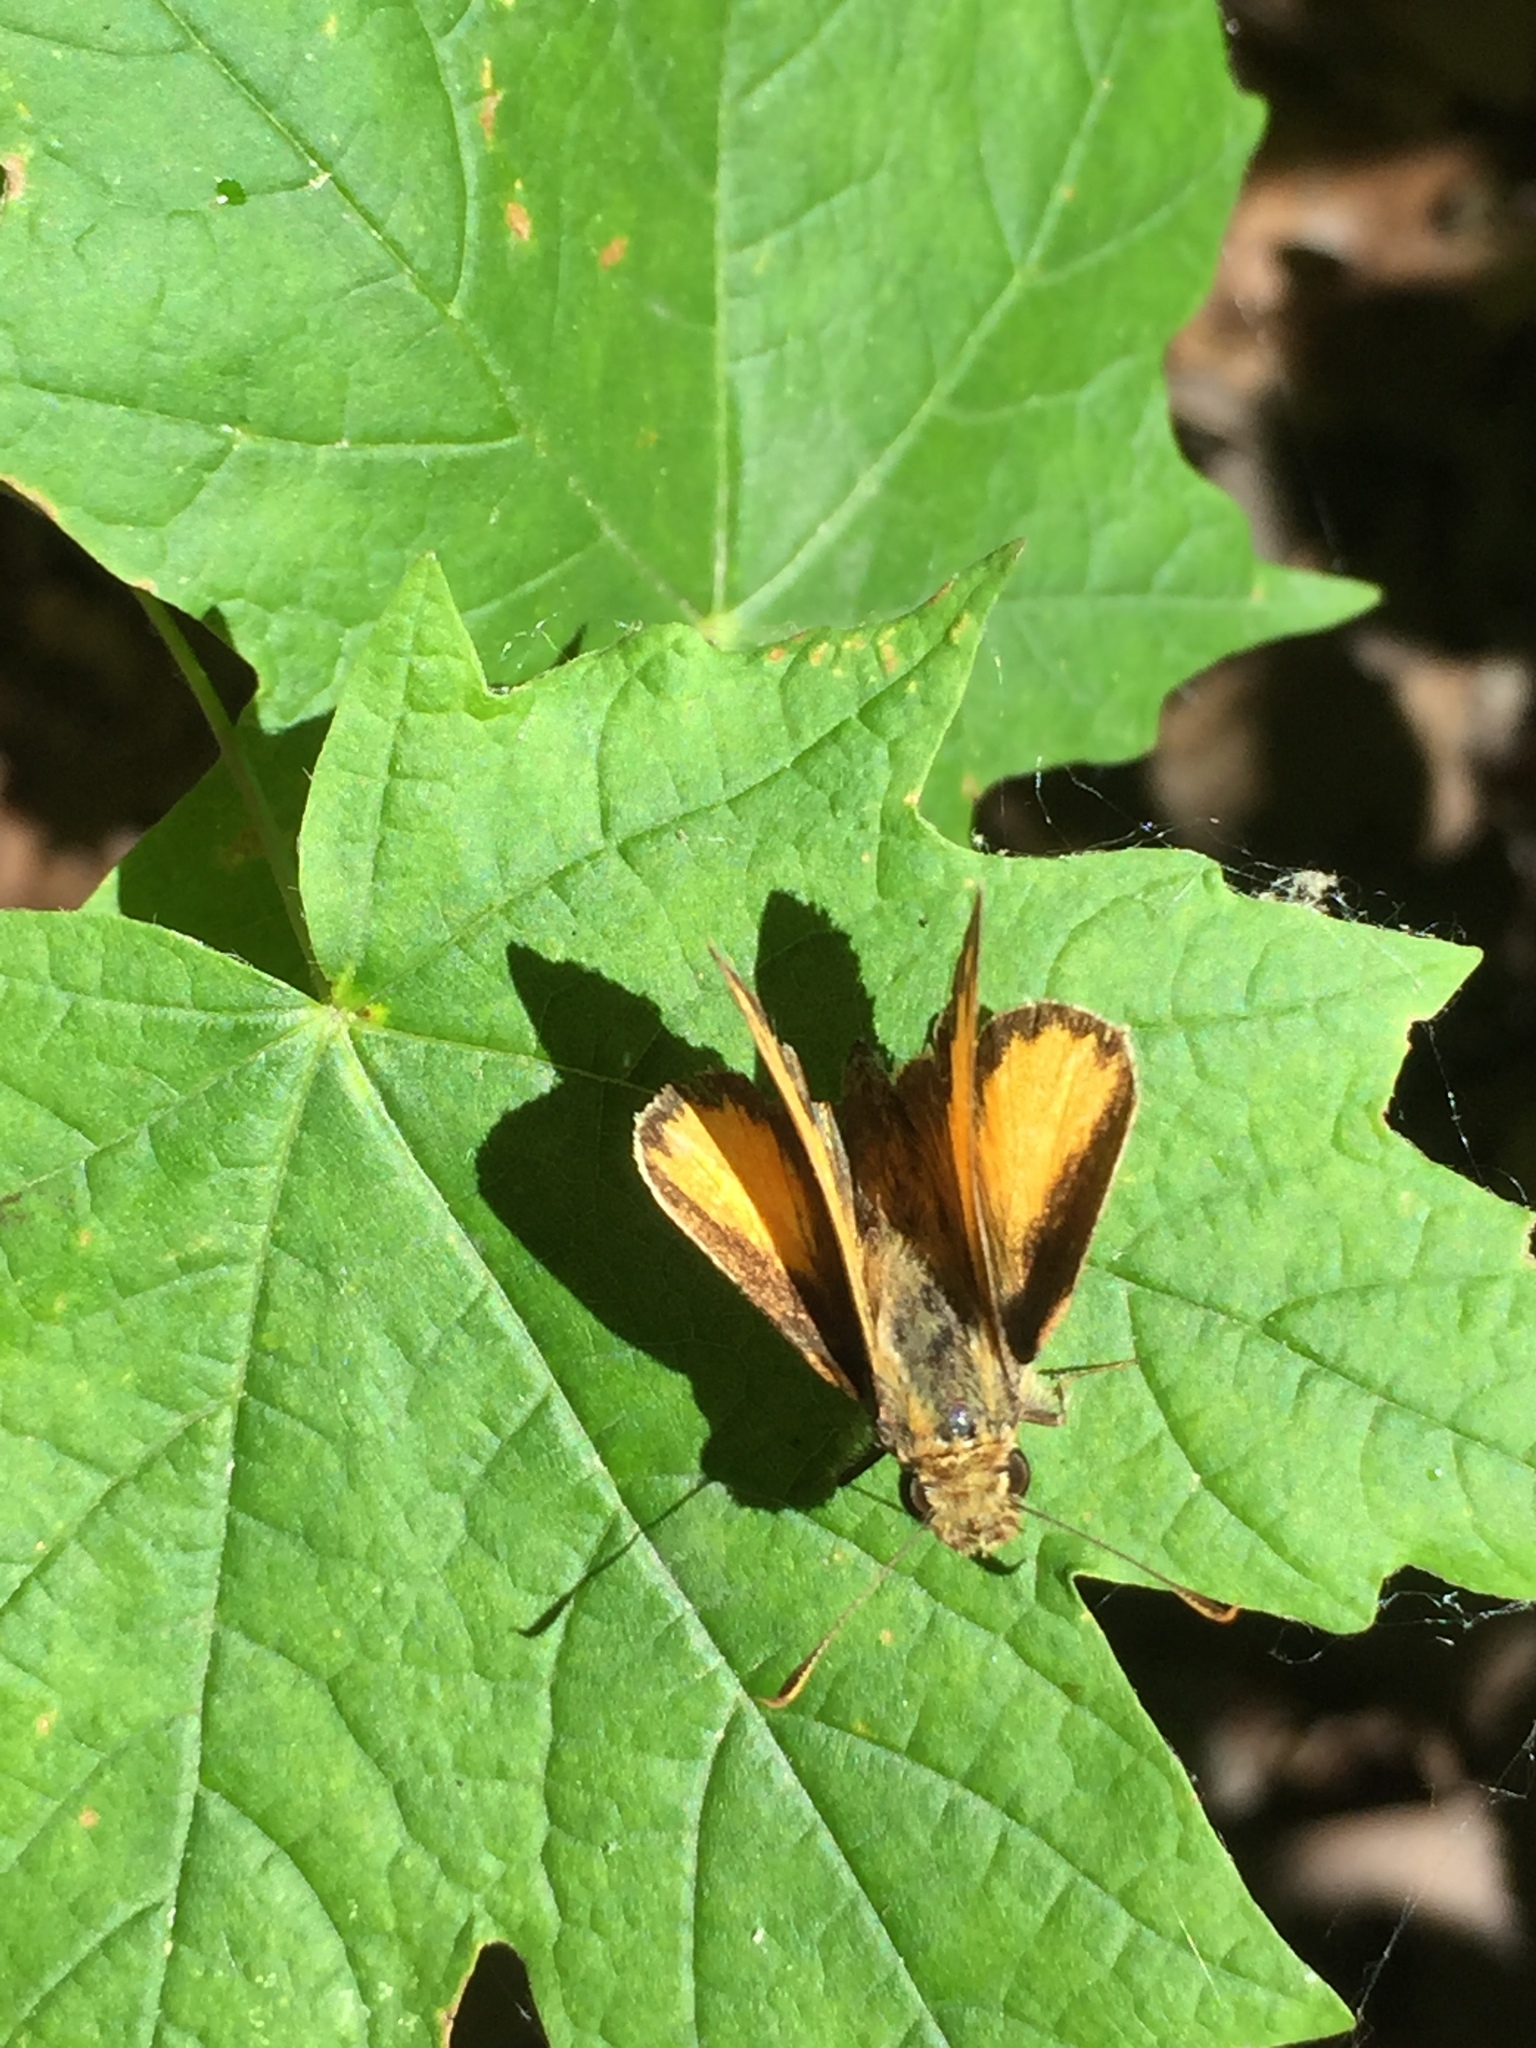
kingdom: Animalia
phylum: Arthropoda
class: Insecta
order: Lepidoptera
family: Hesperiidae
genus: Lon
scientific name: Lon zabulon
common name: Zabulon skipper
